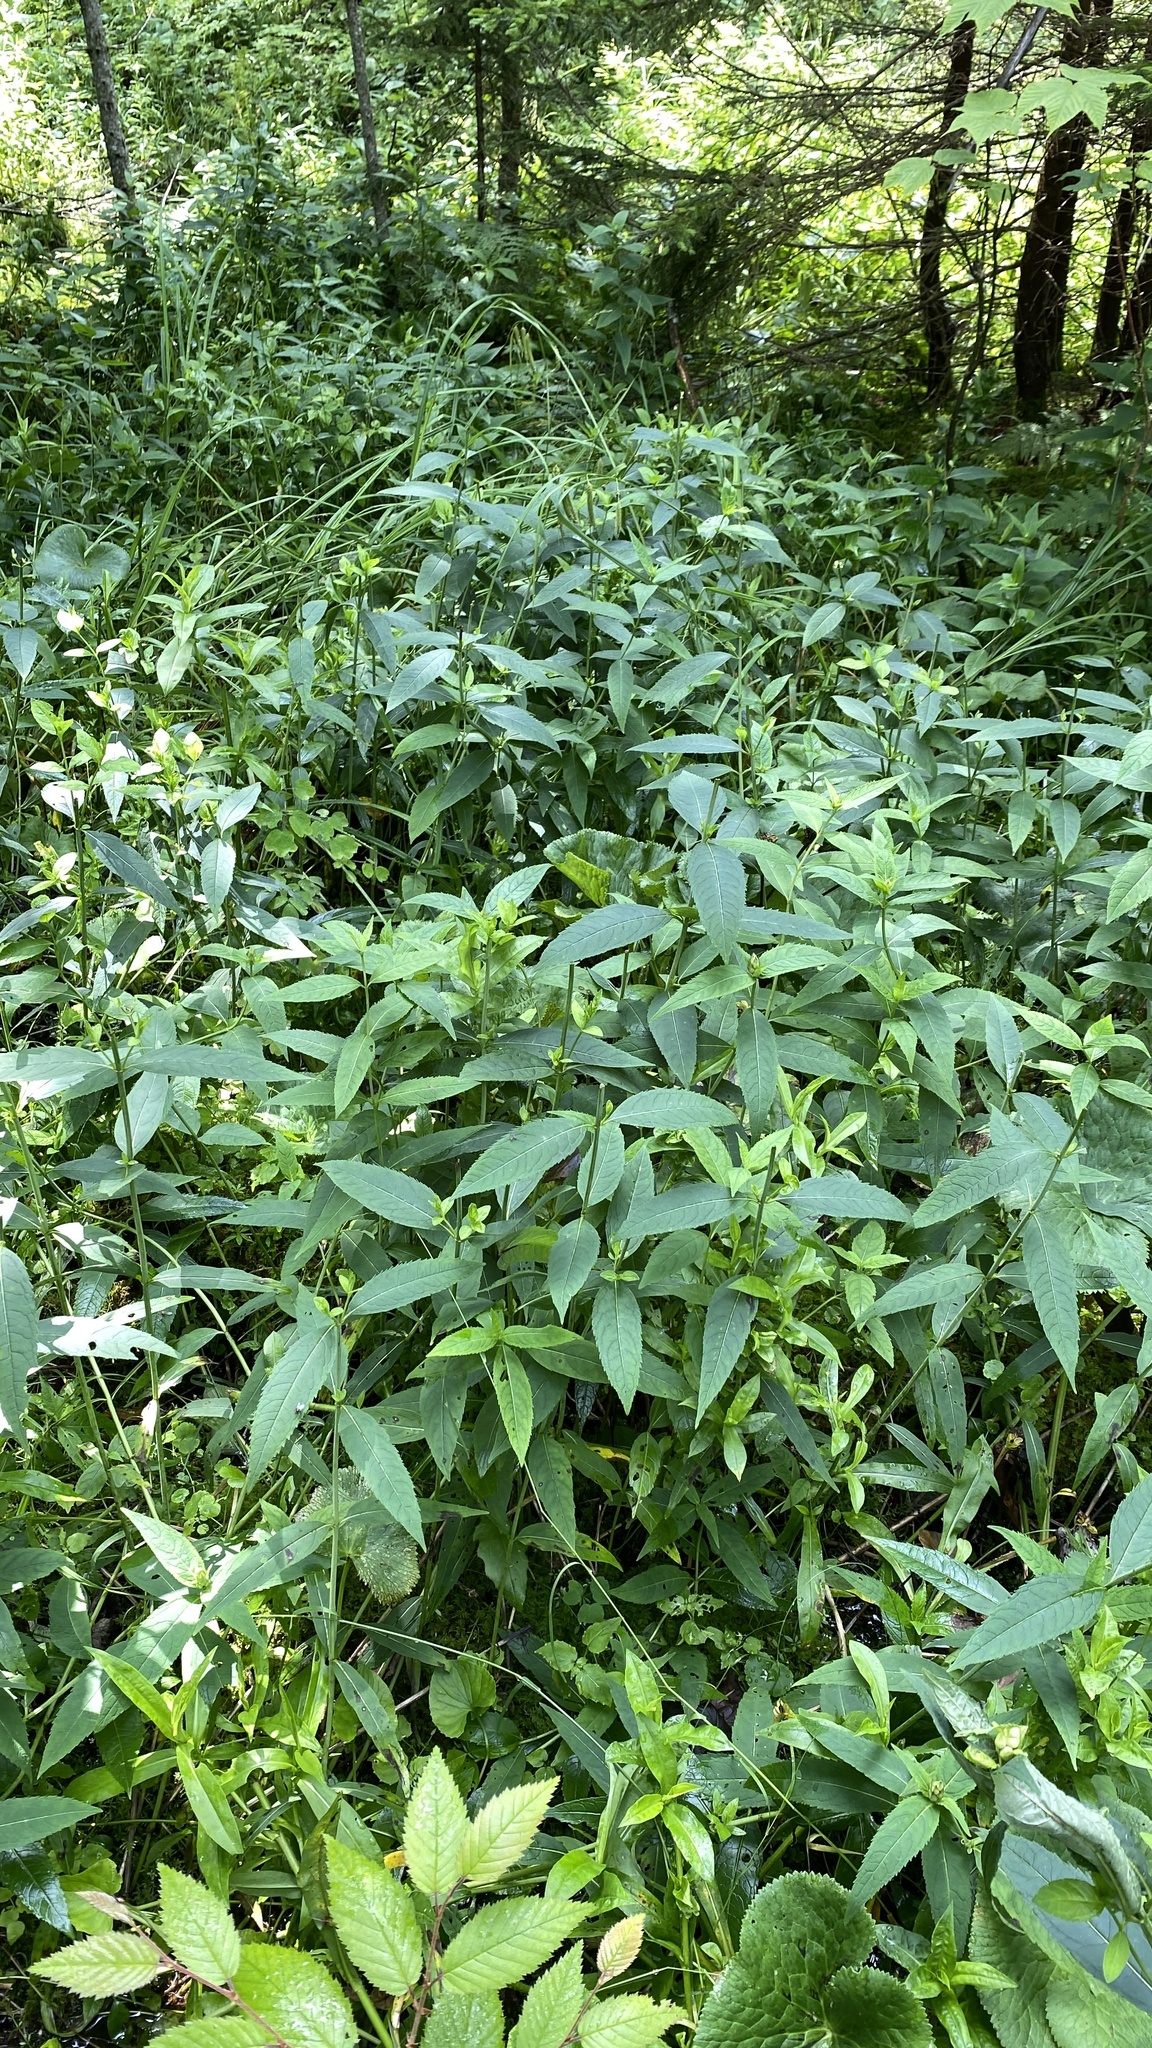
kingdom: Plantae
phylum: Tracheophyta
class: Magnoliopsida
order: Lamiales
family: Plantaginaceae
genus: Chelone
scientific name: Chelone glabra
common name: Snakehead
